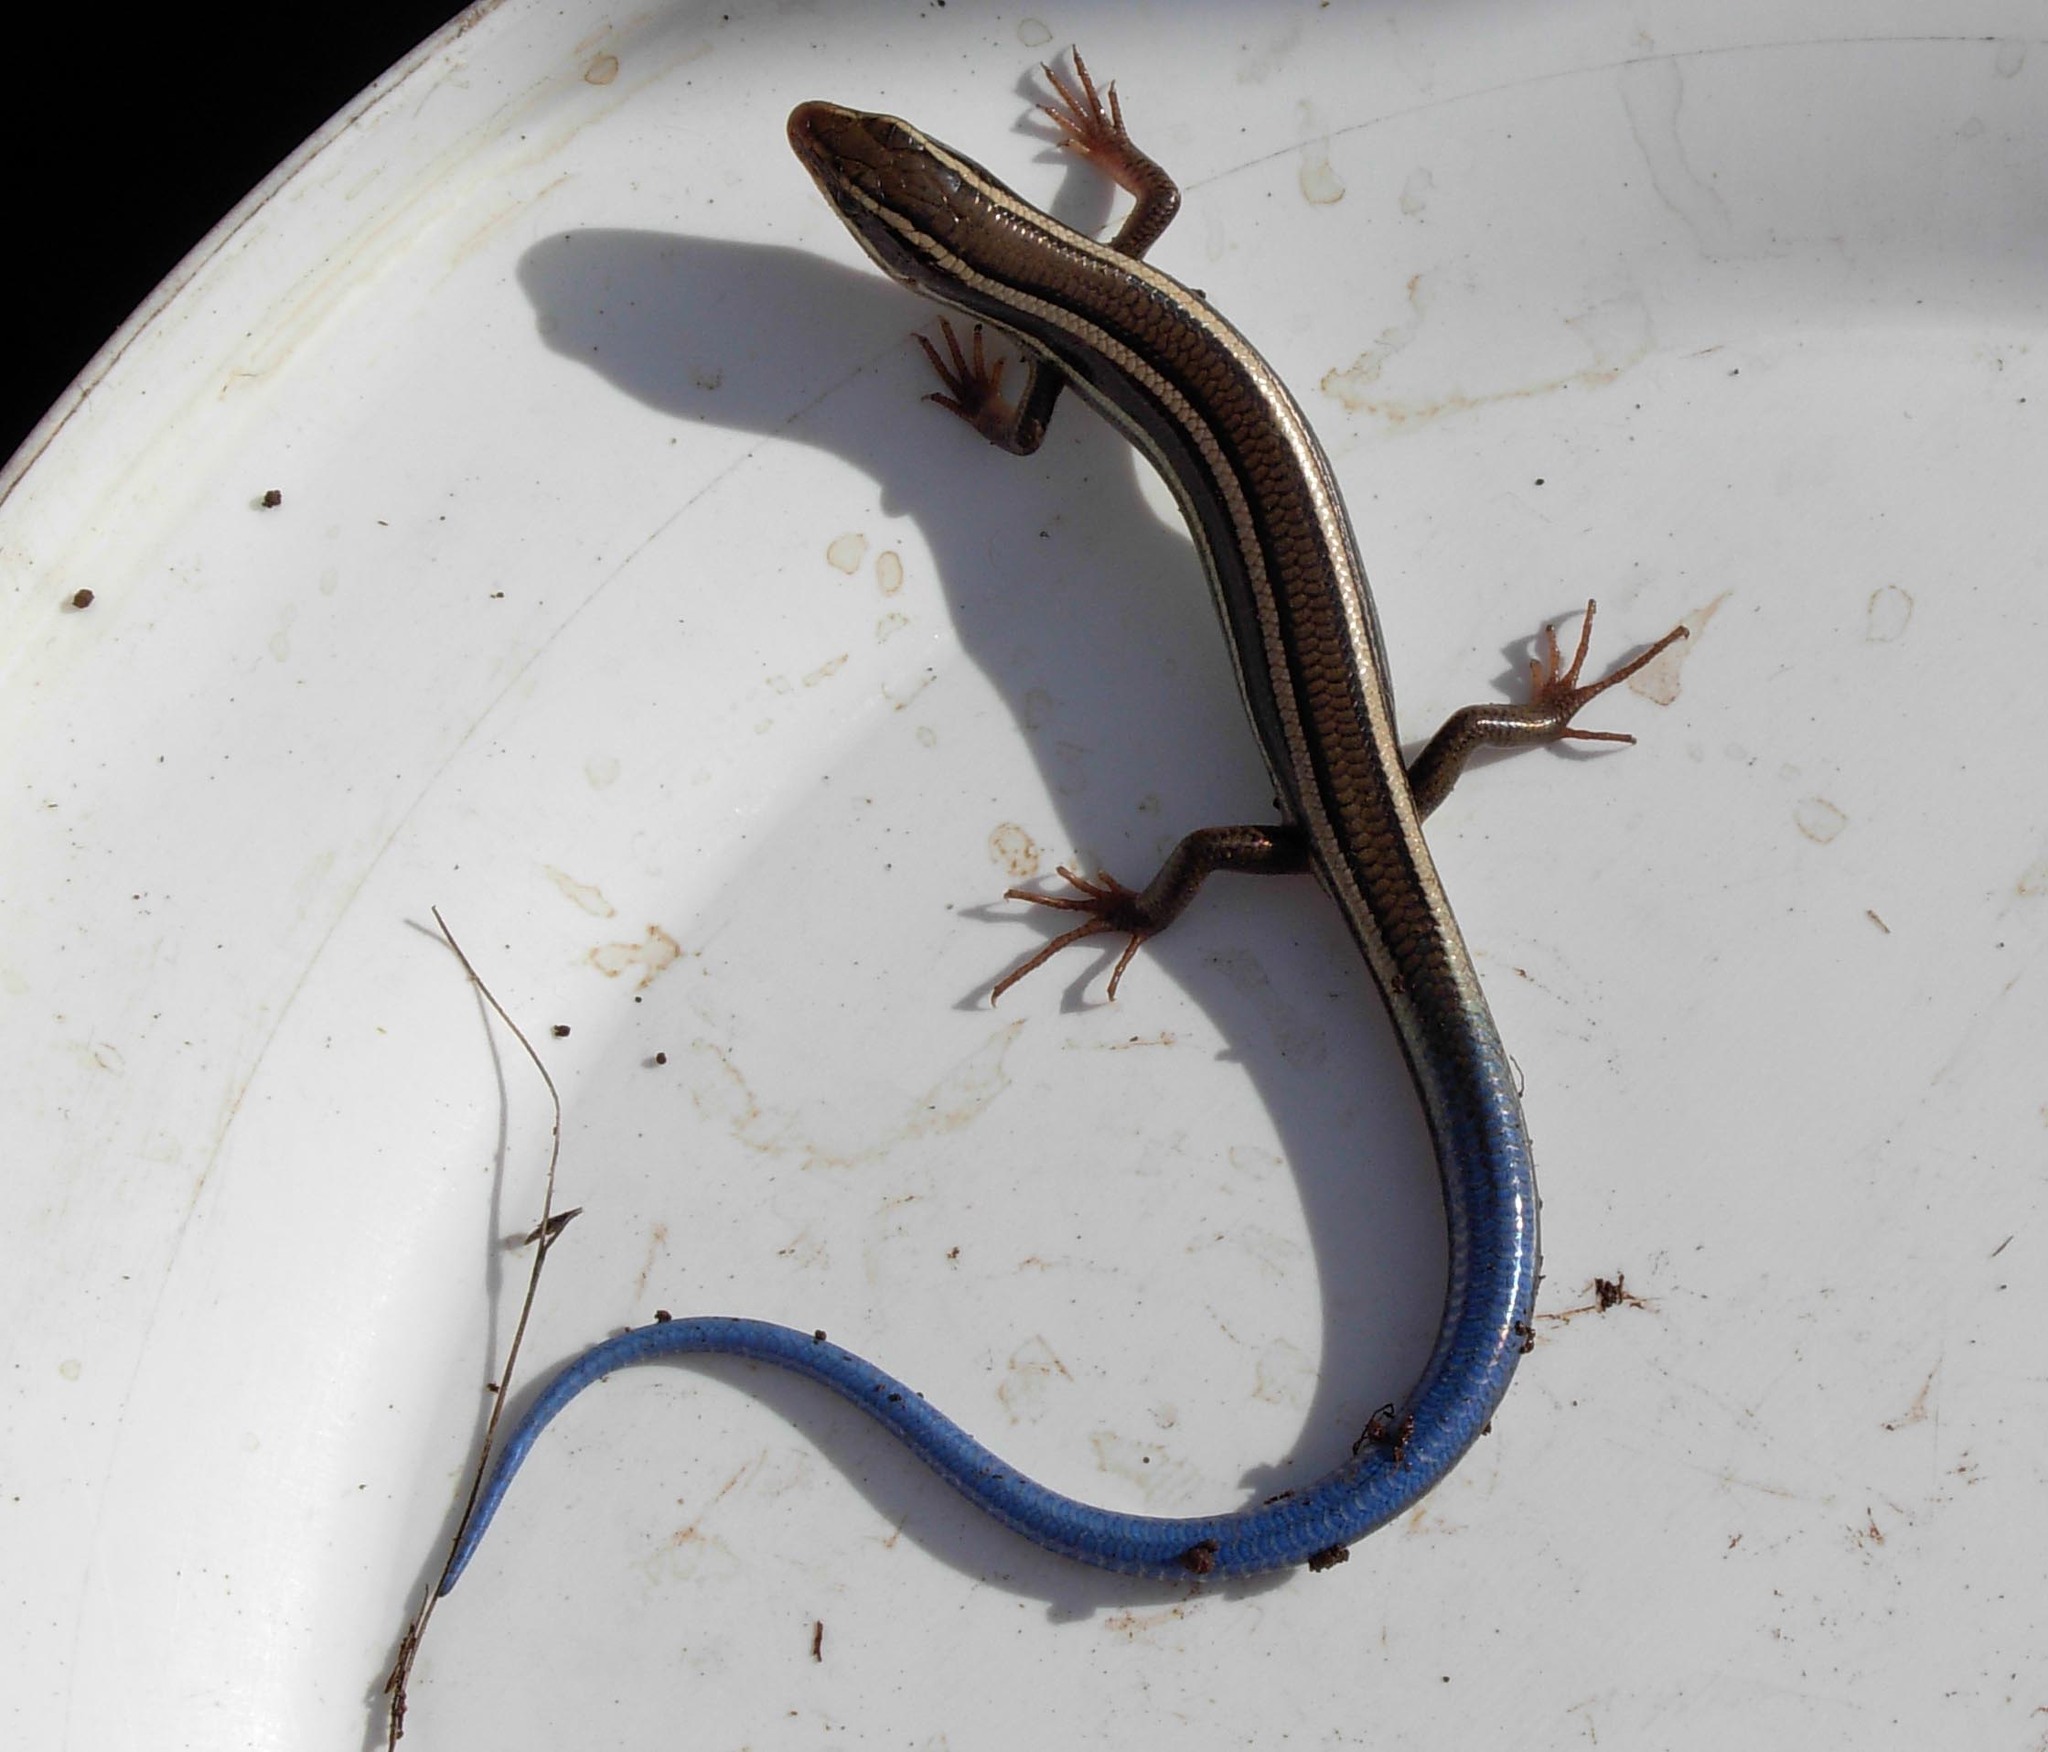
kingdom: Animalia
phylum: Chordata
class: Squamata
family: Scincidae
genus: Plestiodon
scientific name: Plestiodon skiltonianus
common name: Coronado island skink [interparietalis]
